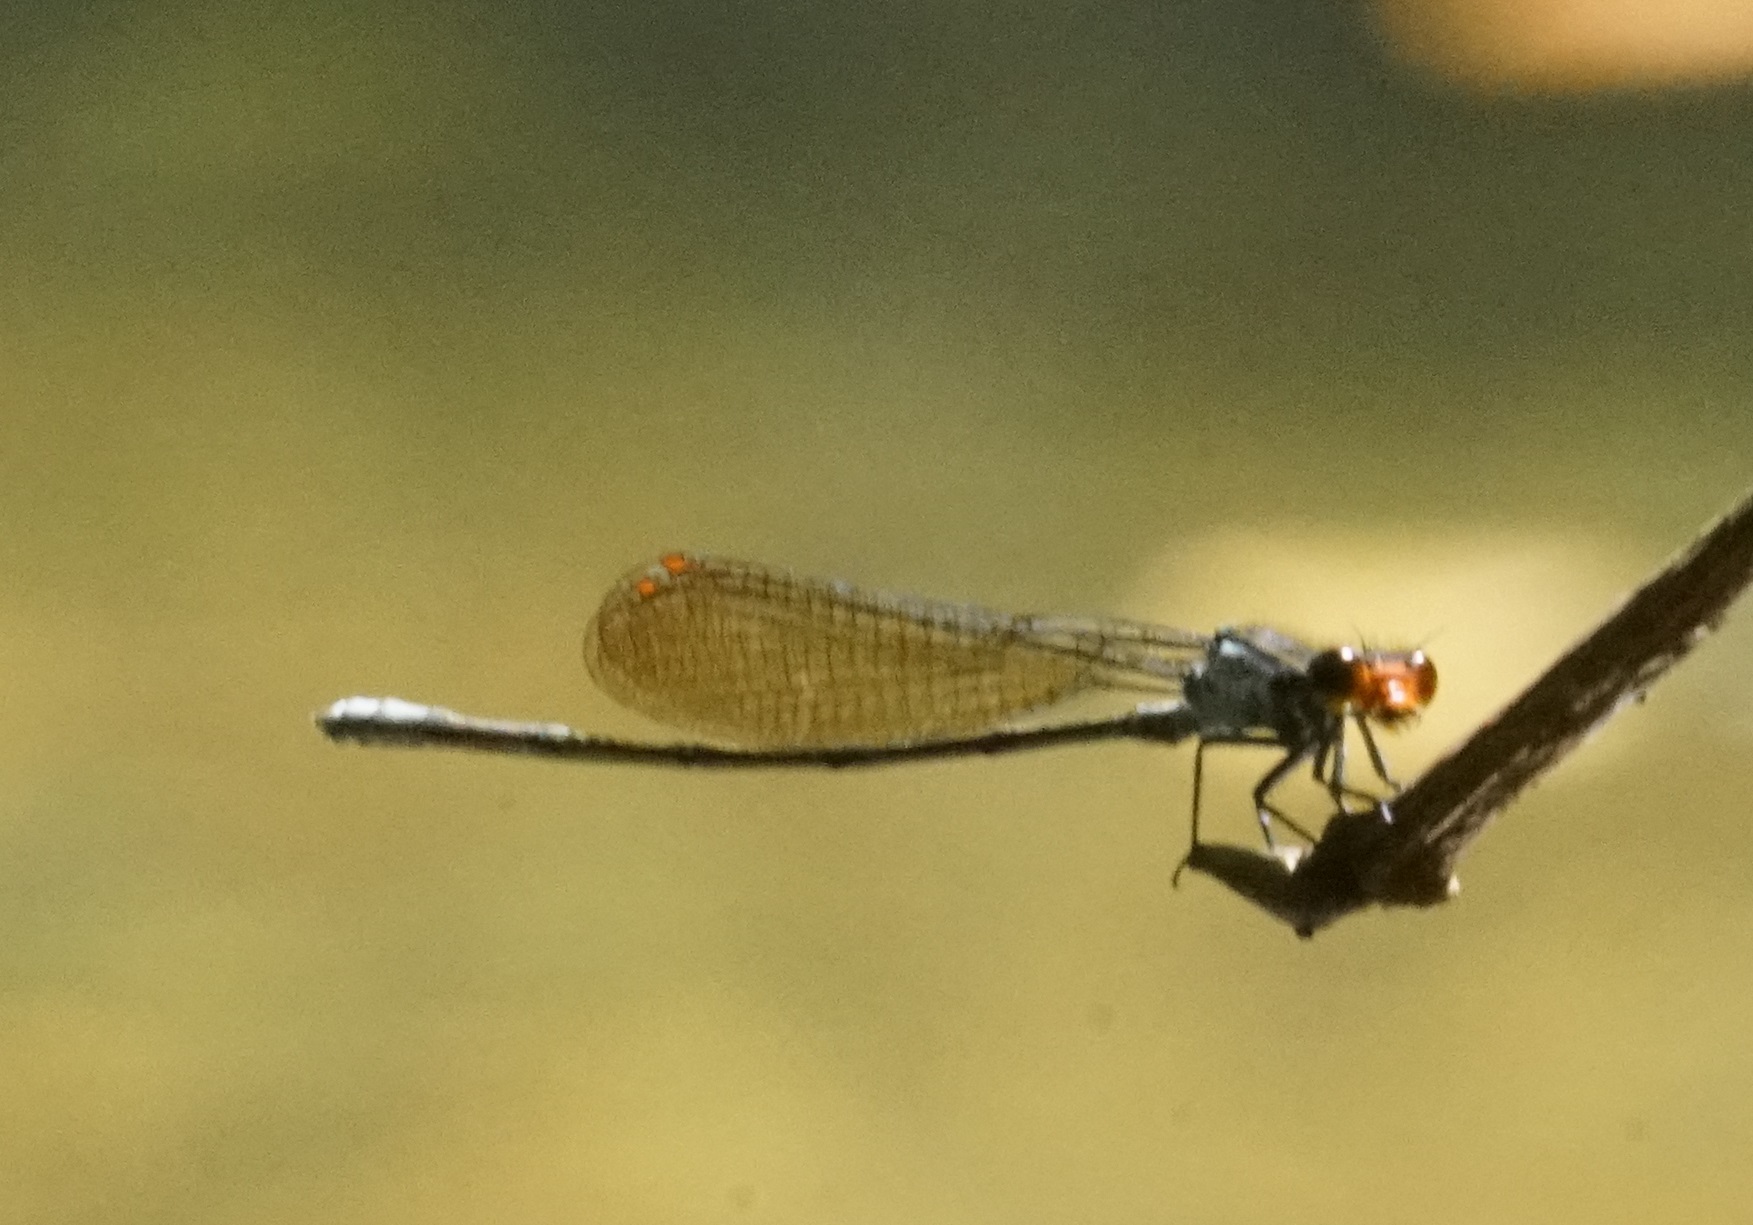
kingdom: Animalia
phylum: Arthropoda
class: Insecta
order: Odonata
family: Coenagrionidae
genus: Pseudagrion
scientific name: Pseudagrion ignifer
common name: Flame-headed riverdamsel
